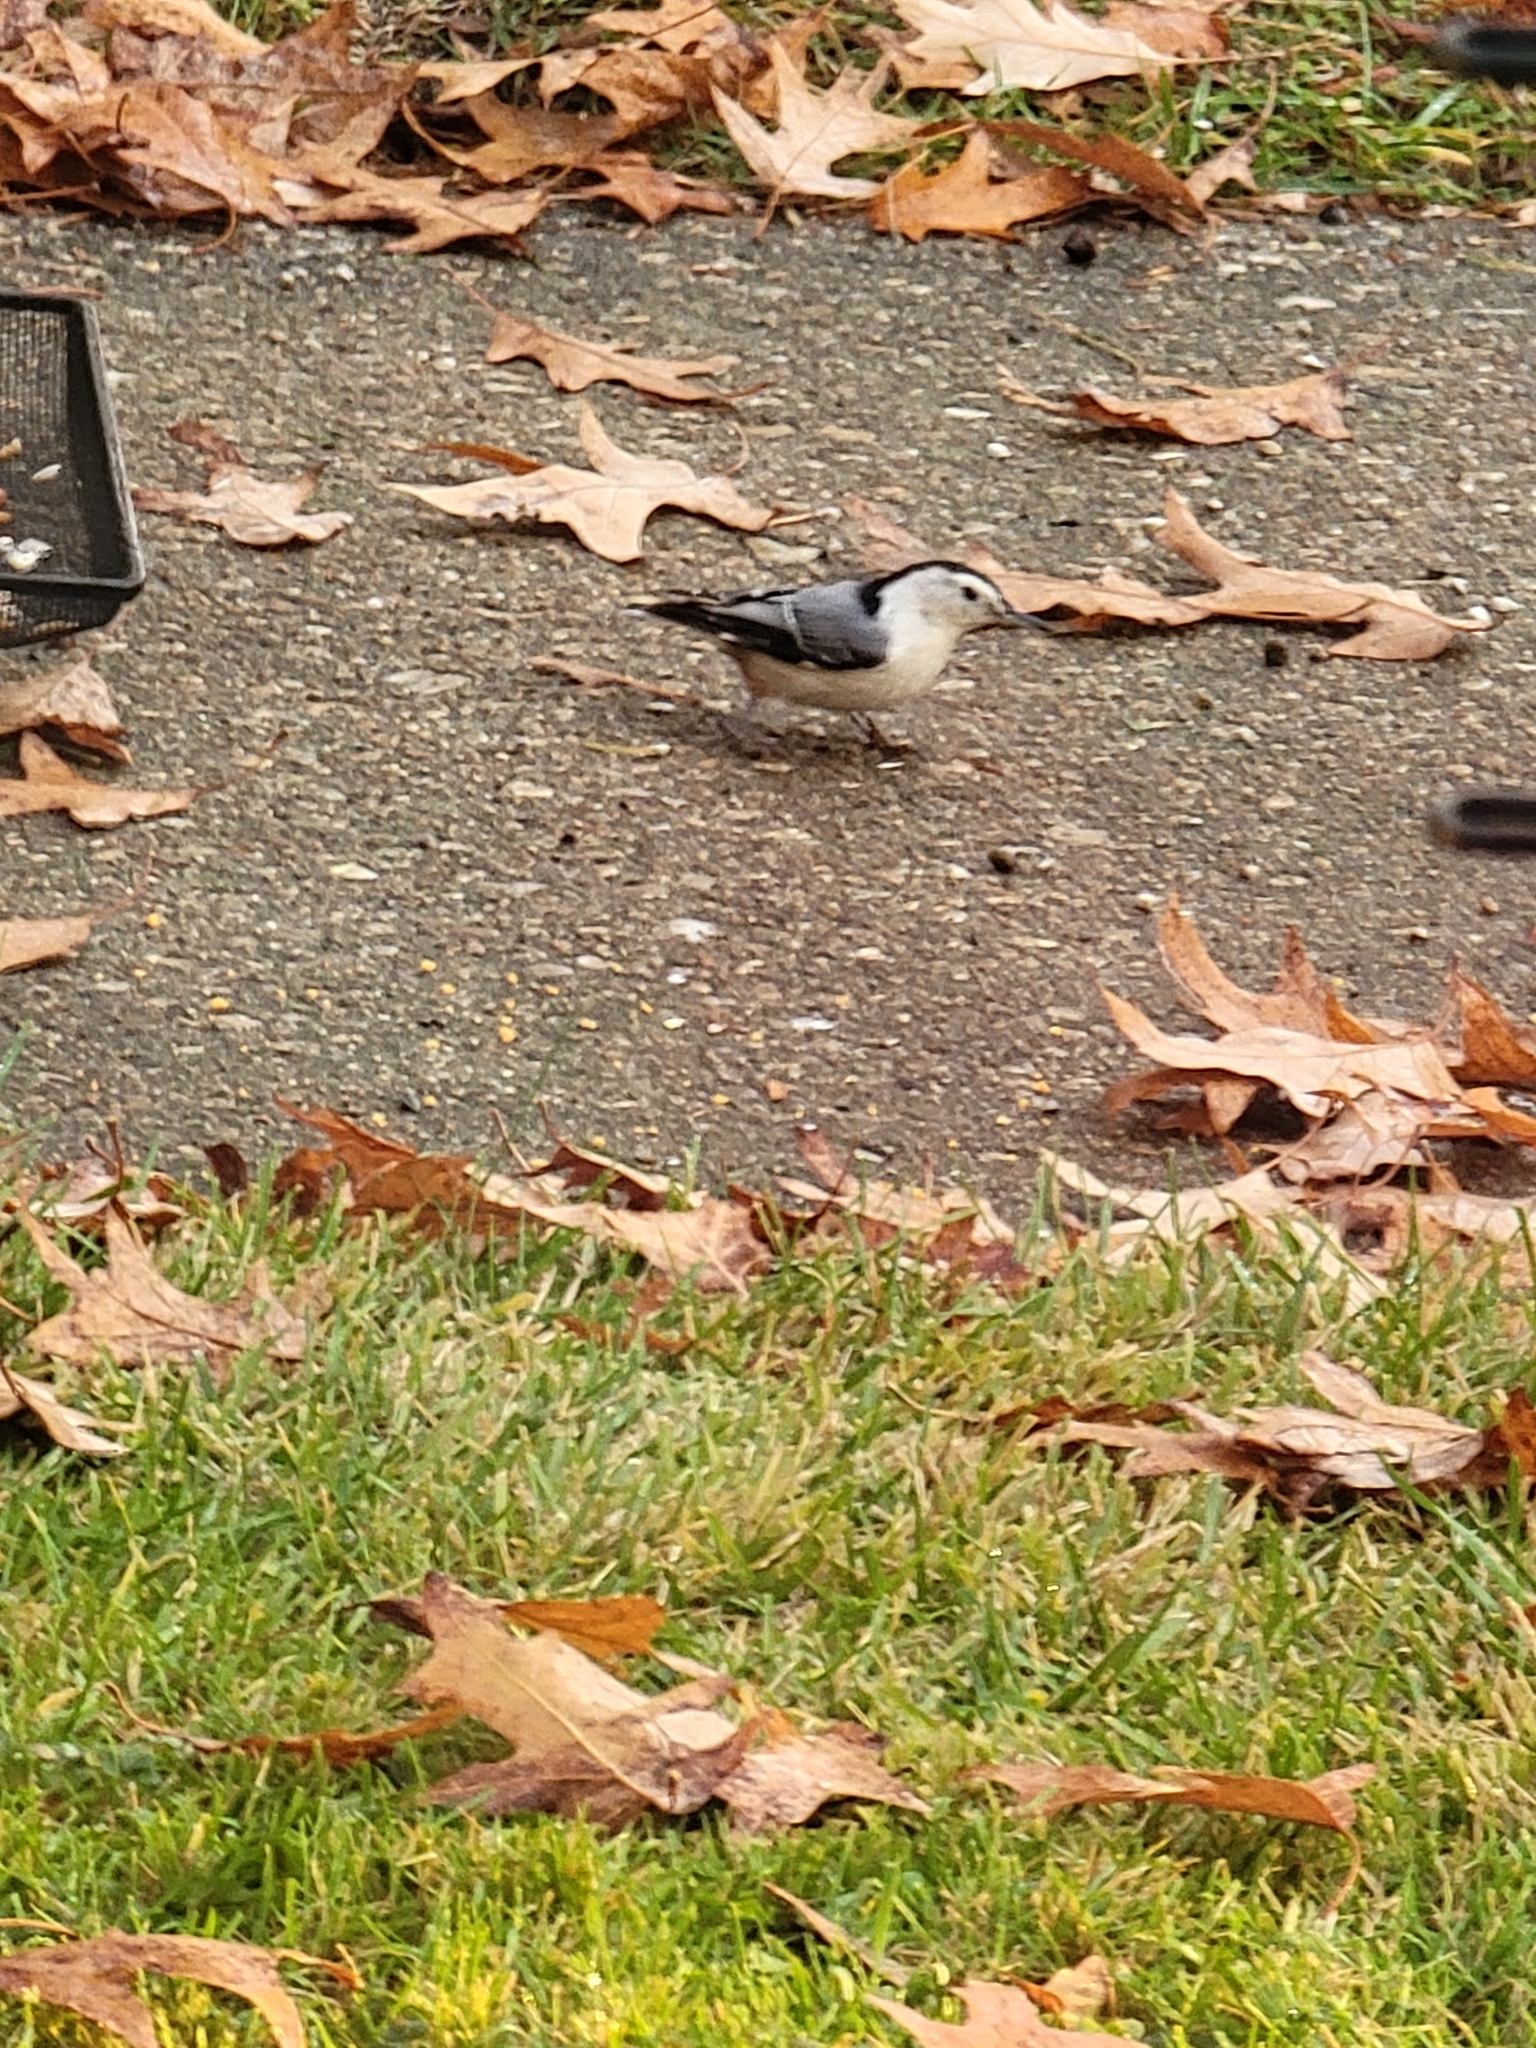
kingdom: Animalia
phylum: Chordata
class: Aves
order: Passeriformes
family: Sittidae
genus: Sitta
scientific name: Sitta carolinensis
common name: White-breasted nuthatch
